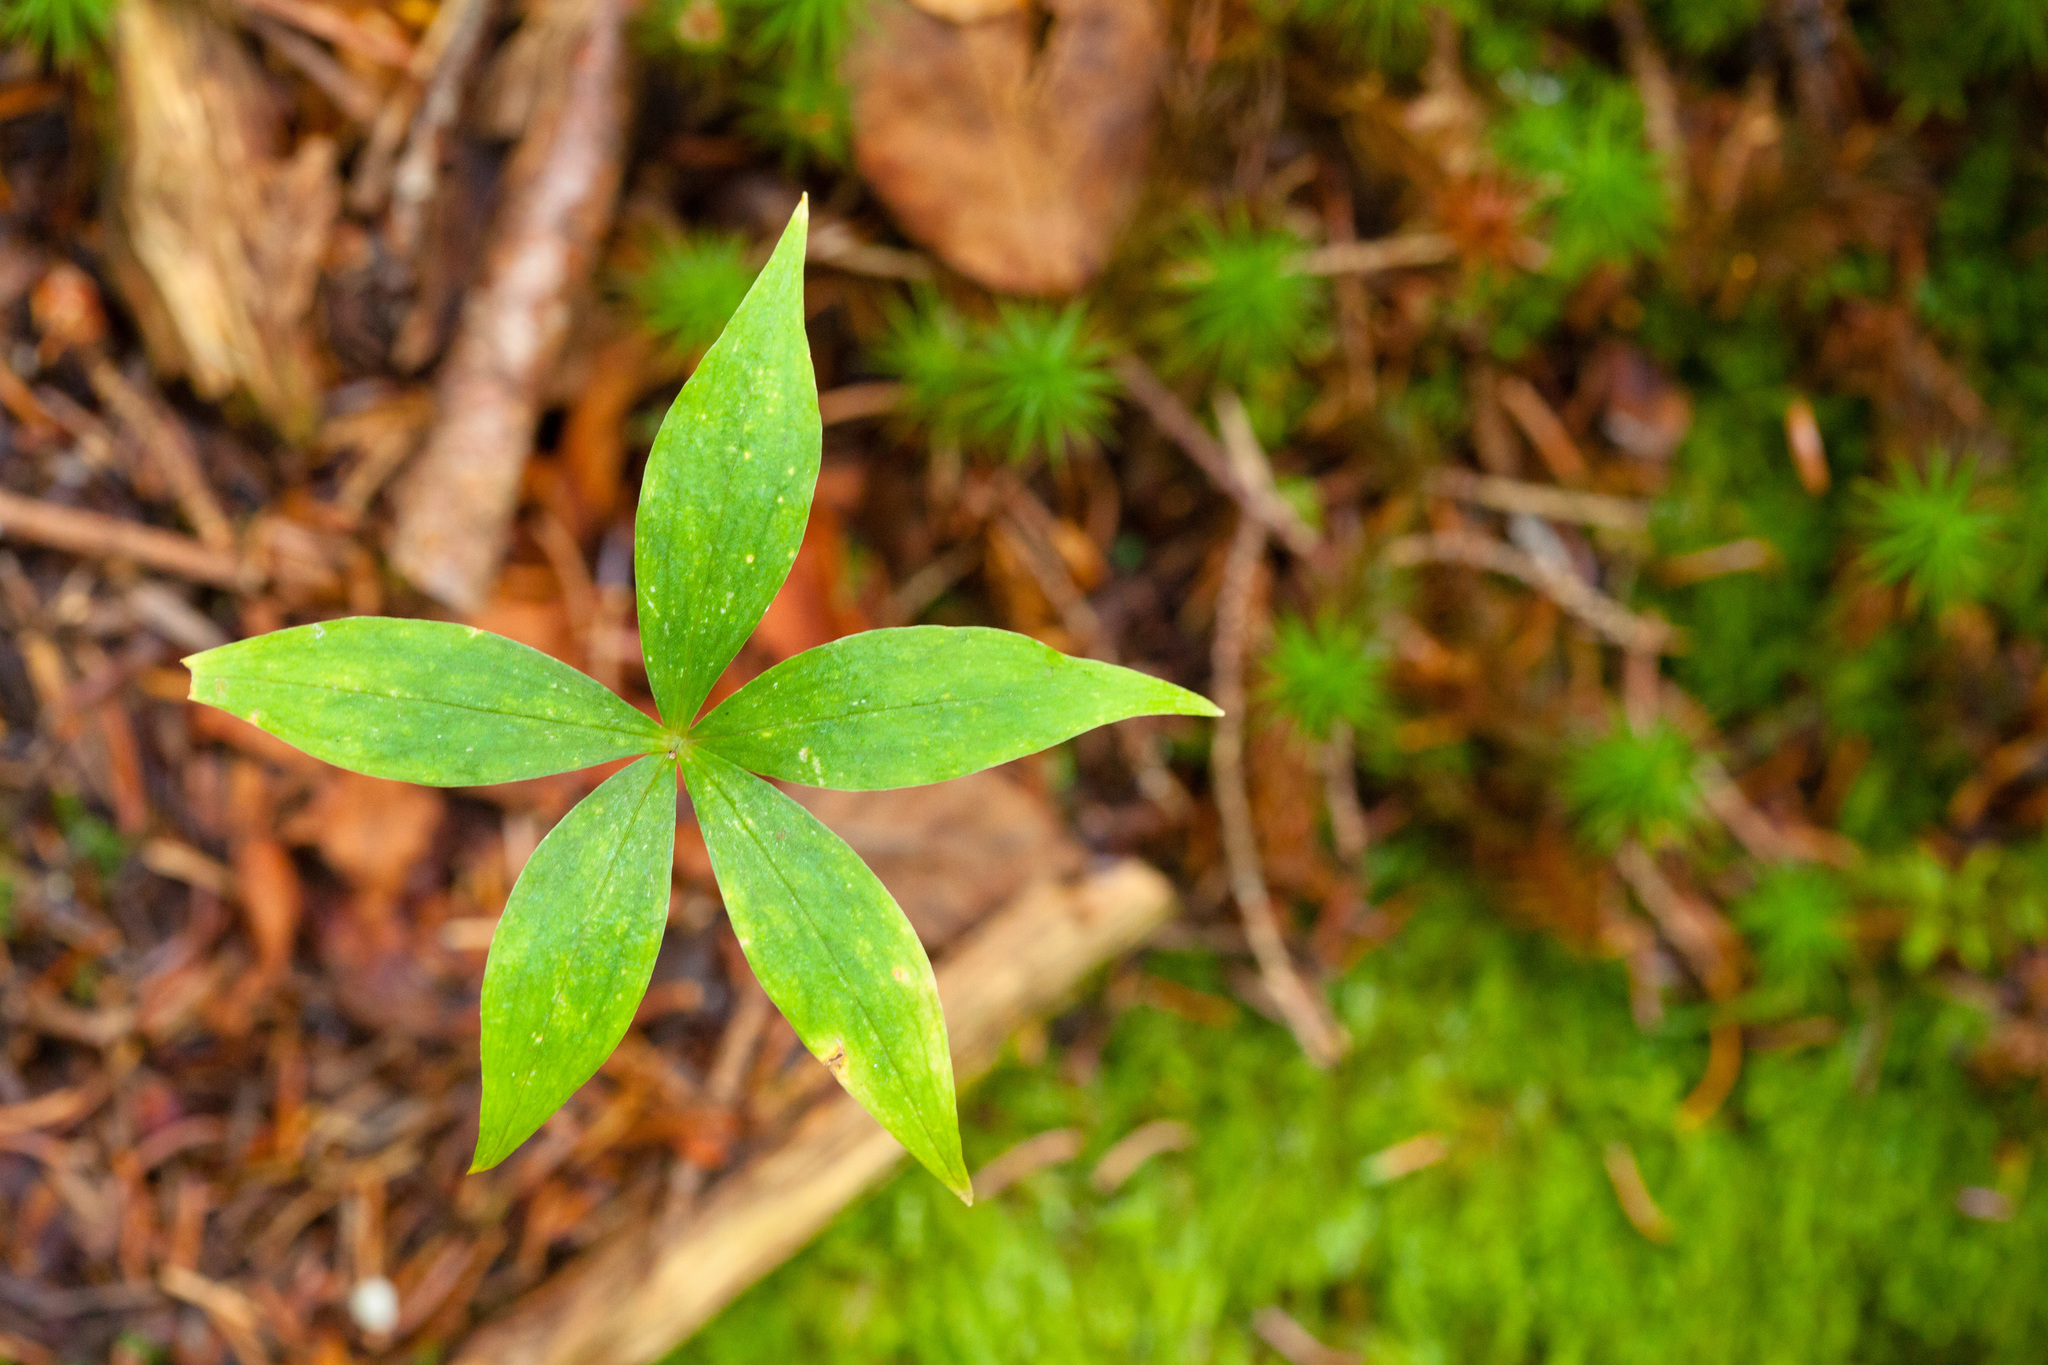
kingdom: Plantae
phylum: Tracheophyta
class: Magnoliopsida
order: Ericales
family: Primulaceae
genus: Lysimachia
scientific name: Lysimachia borealis
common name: American starflower
